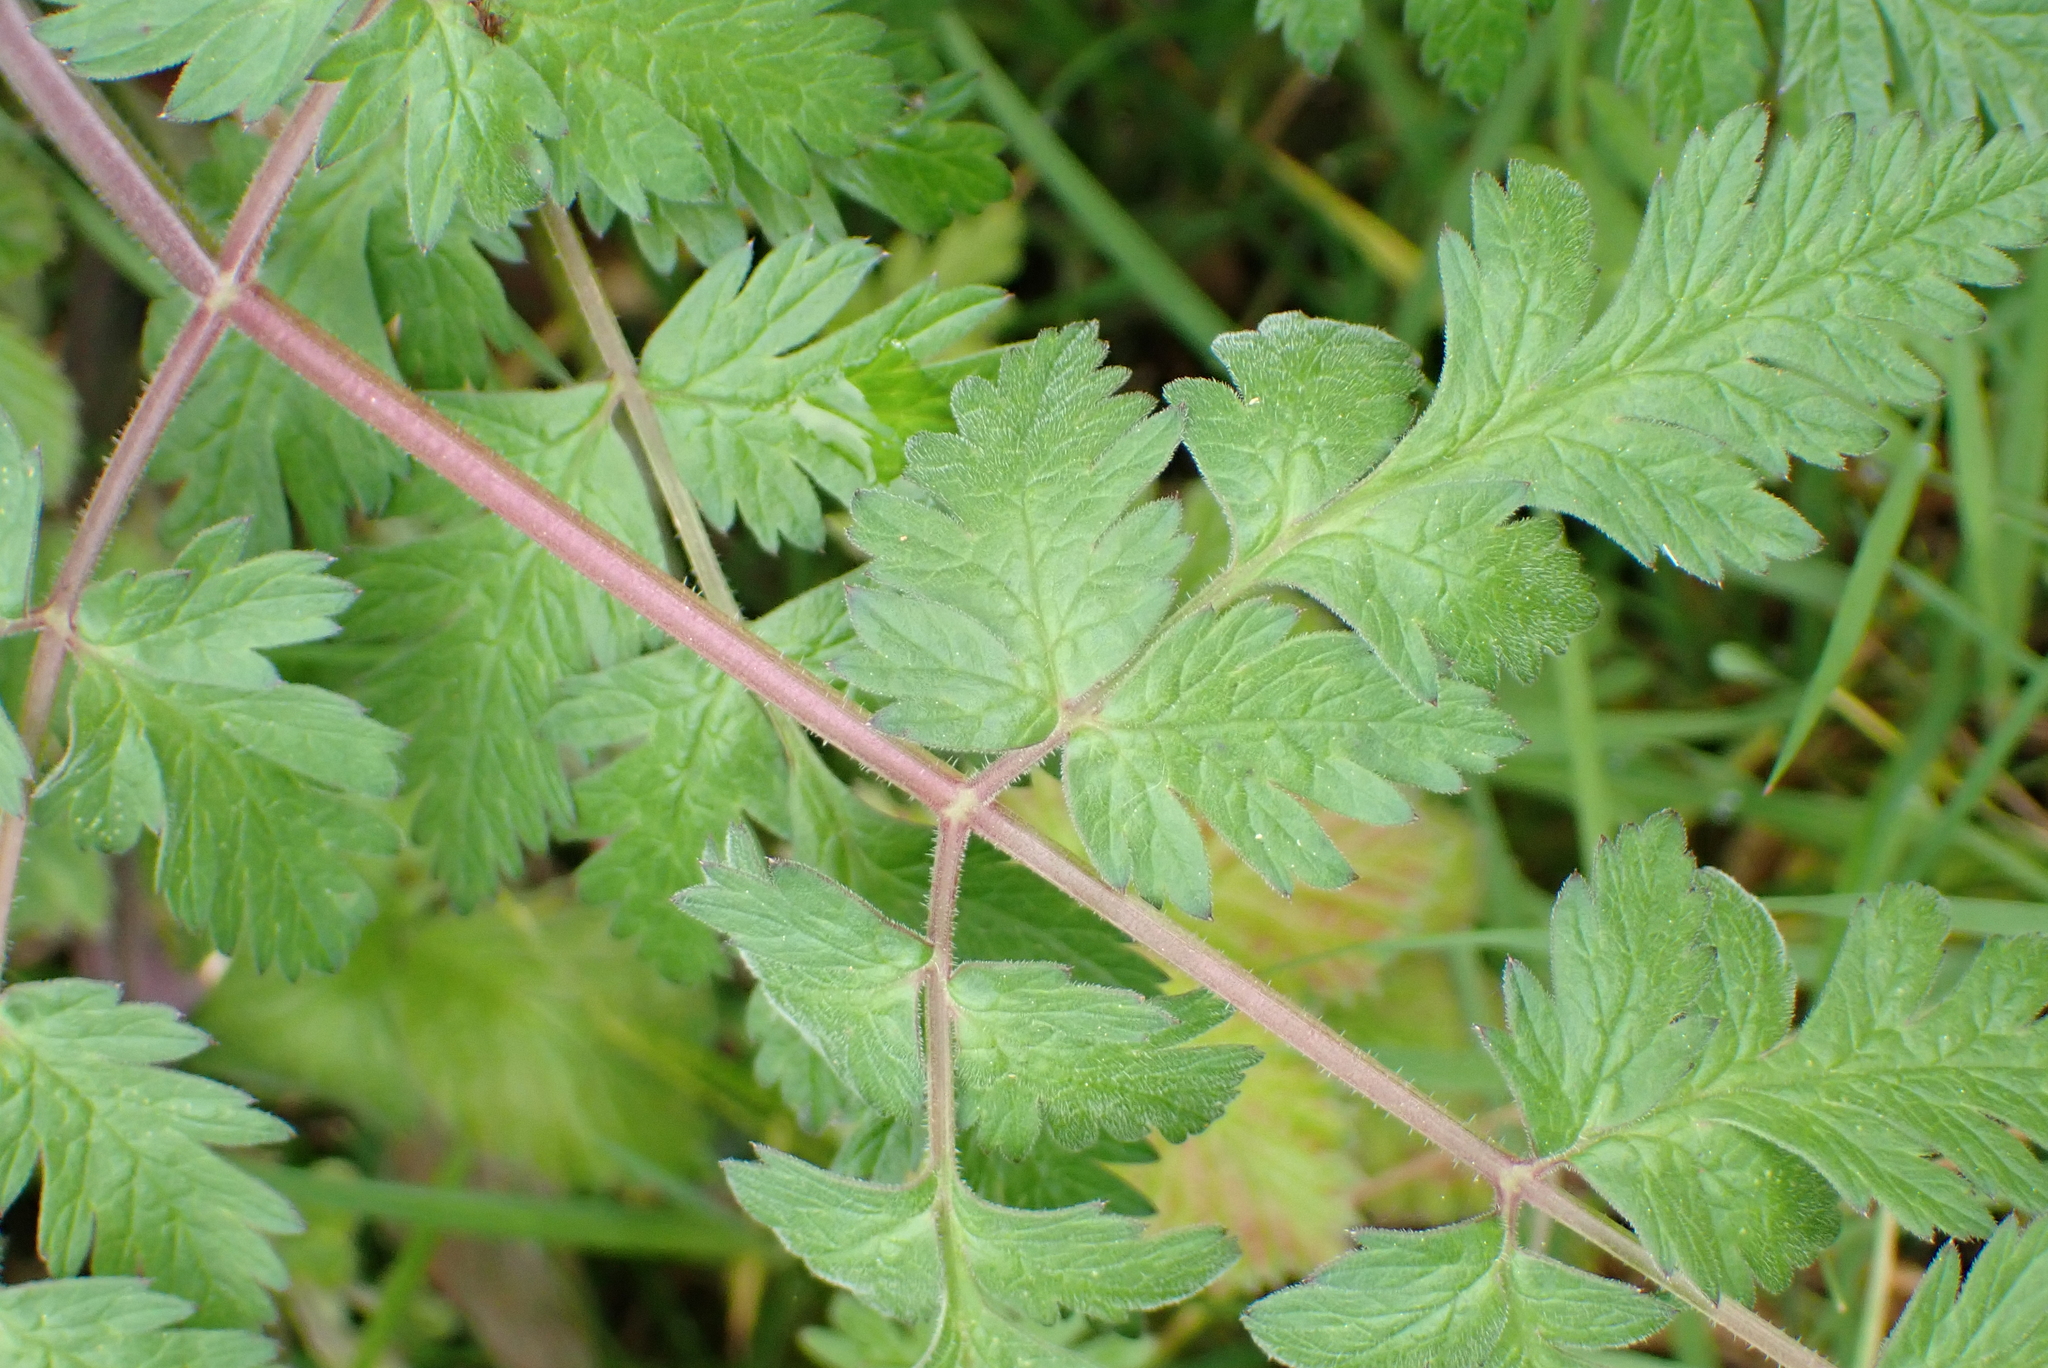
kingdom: Plantae
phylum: Tracheophyta
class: Magnoliopsida
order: Apiales
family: Apiaceae
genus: Anthriscus
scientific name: Anthriscus sylvestris
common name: Cow parsley
